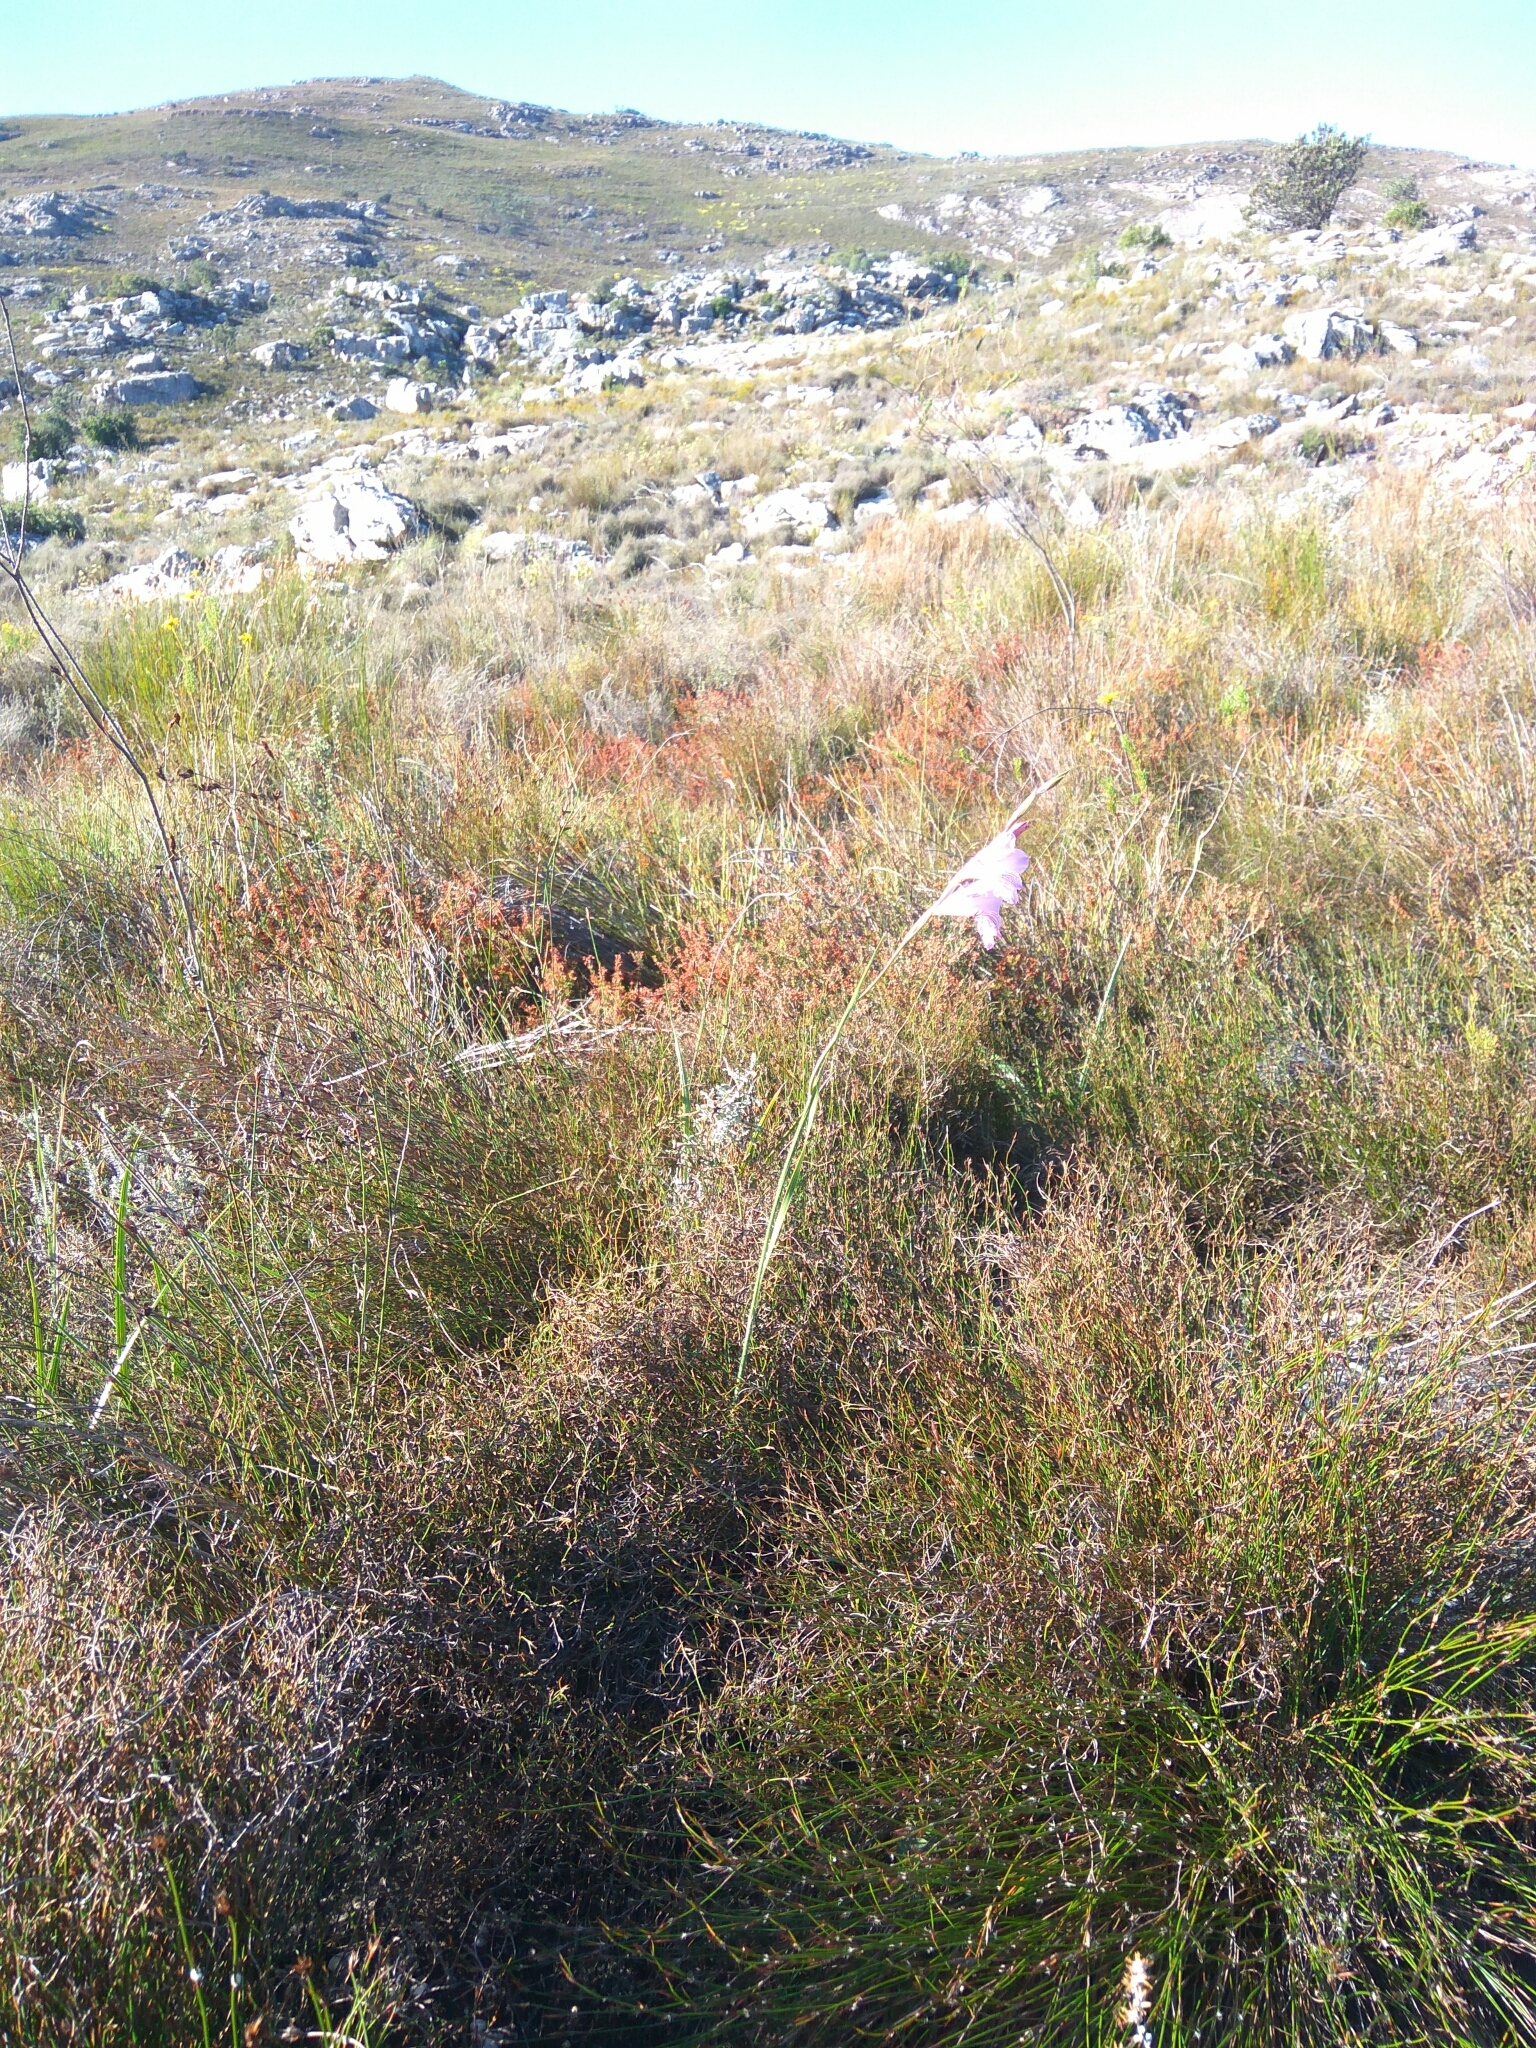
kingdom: Plantae
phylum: Tracheophyta
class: Liliopsida
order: Asparagales
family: Iridaceae
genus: Gladiolus
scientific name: Gladiolus hirsutus
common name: Small pink afrikaner
